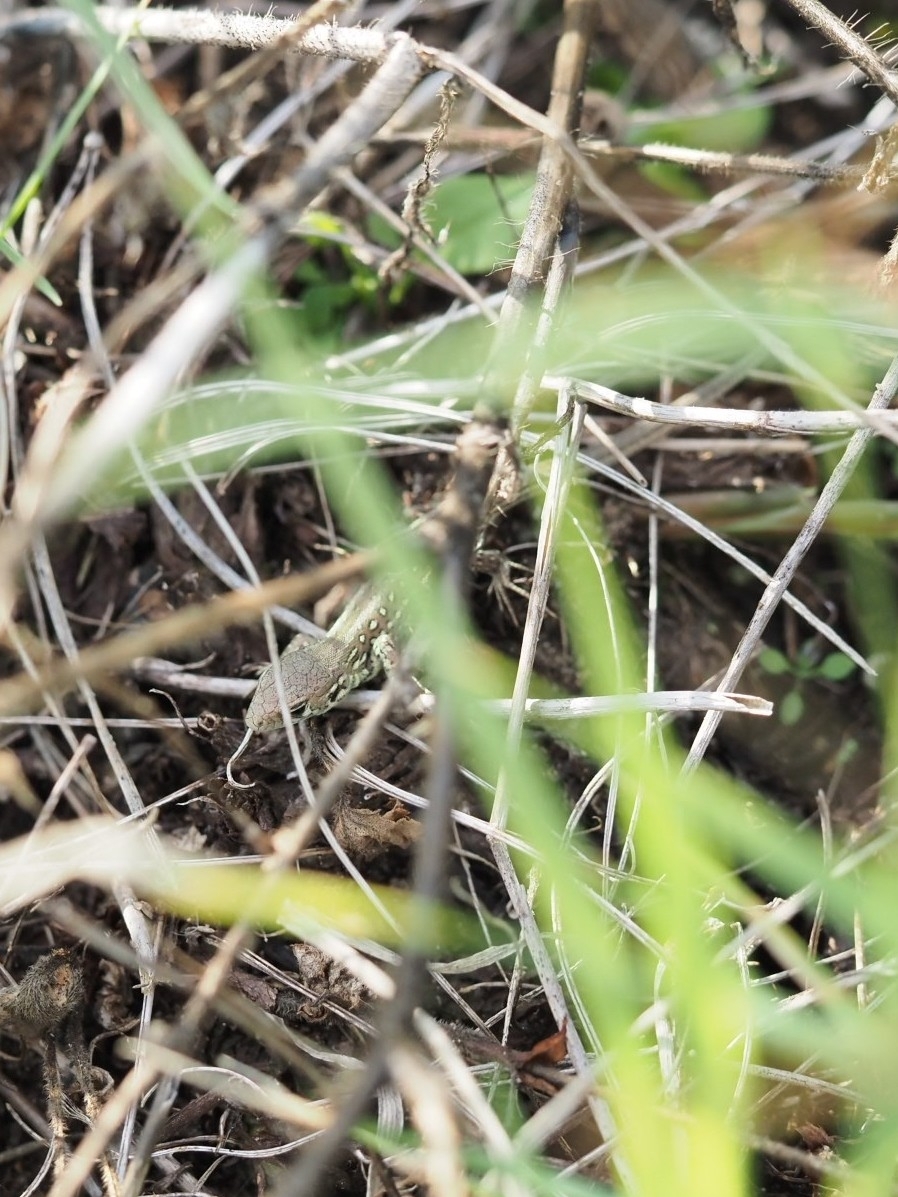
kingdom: Animalia
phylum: Chordata
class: Squamata
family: Lacertidae
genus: Lacerta
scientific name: Lacerta agilis
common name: Sand lizard
